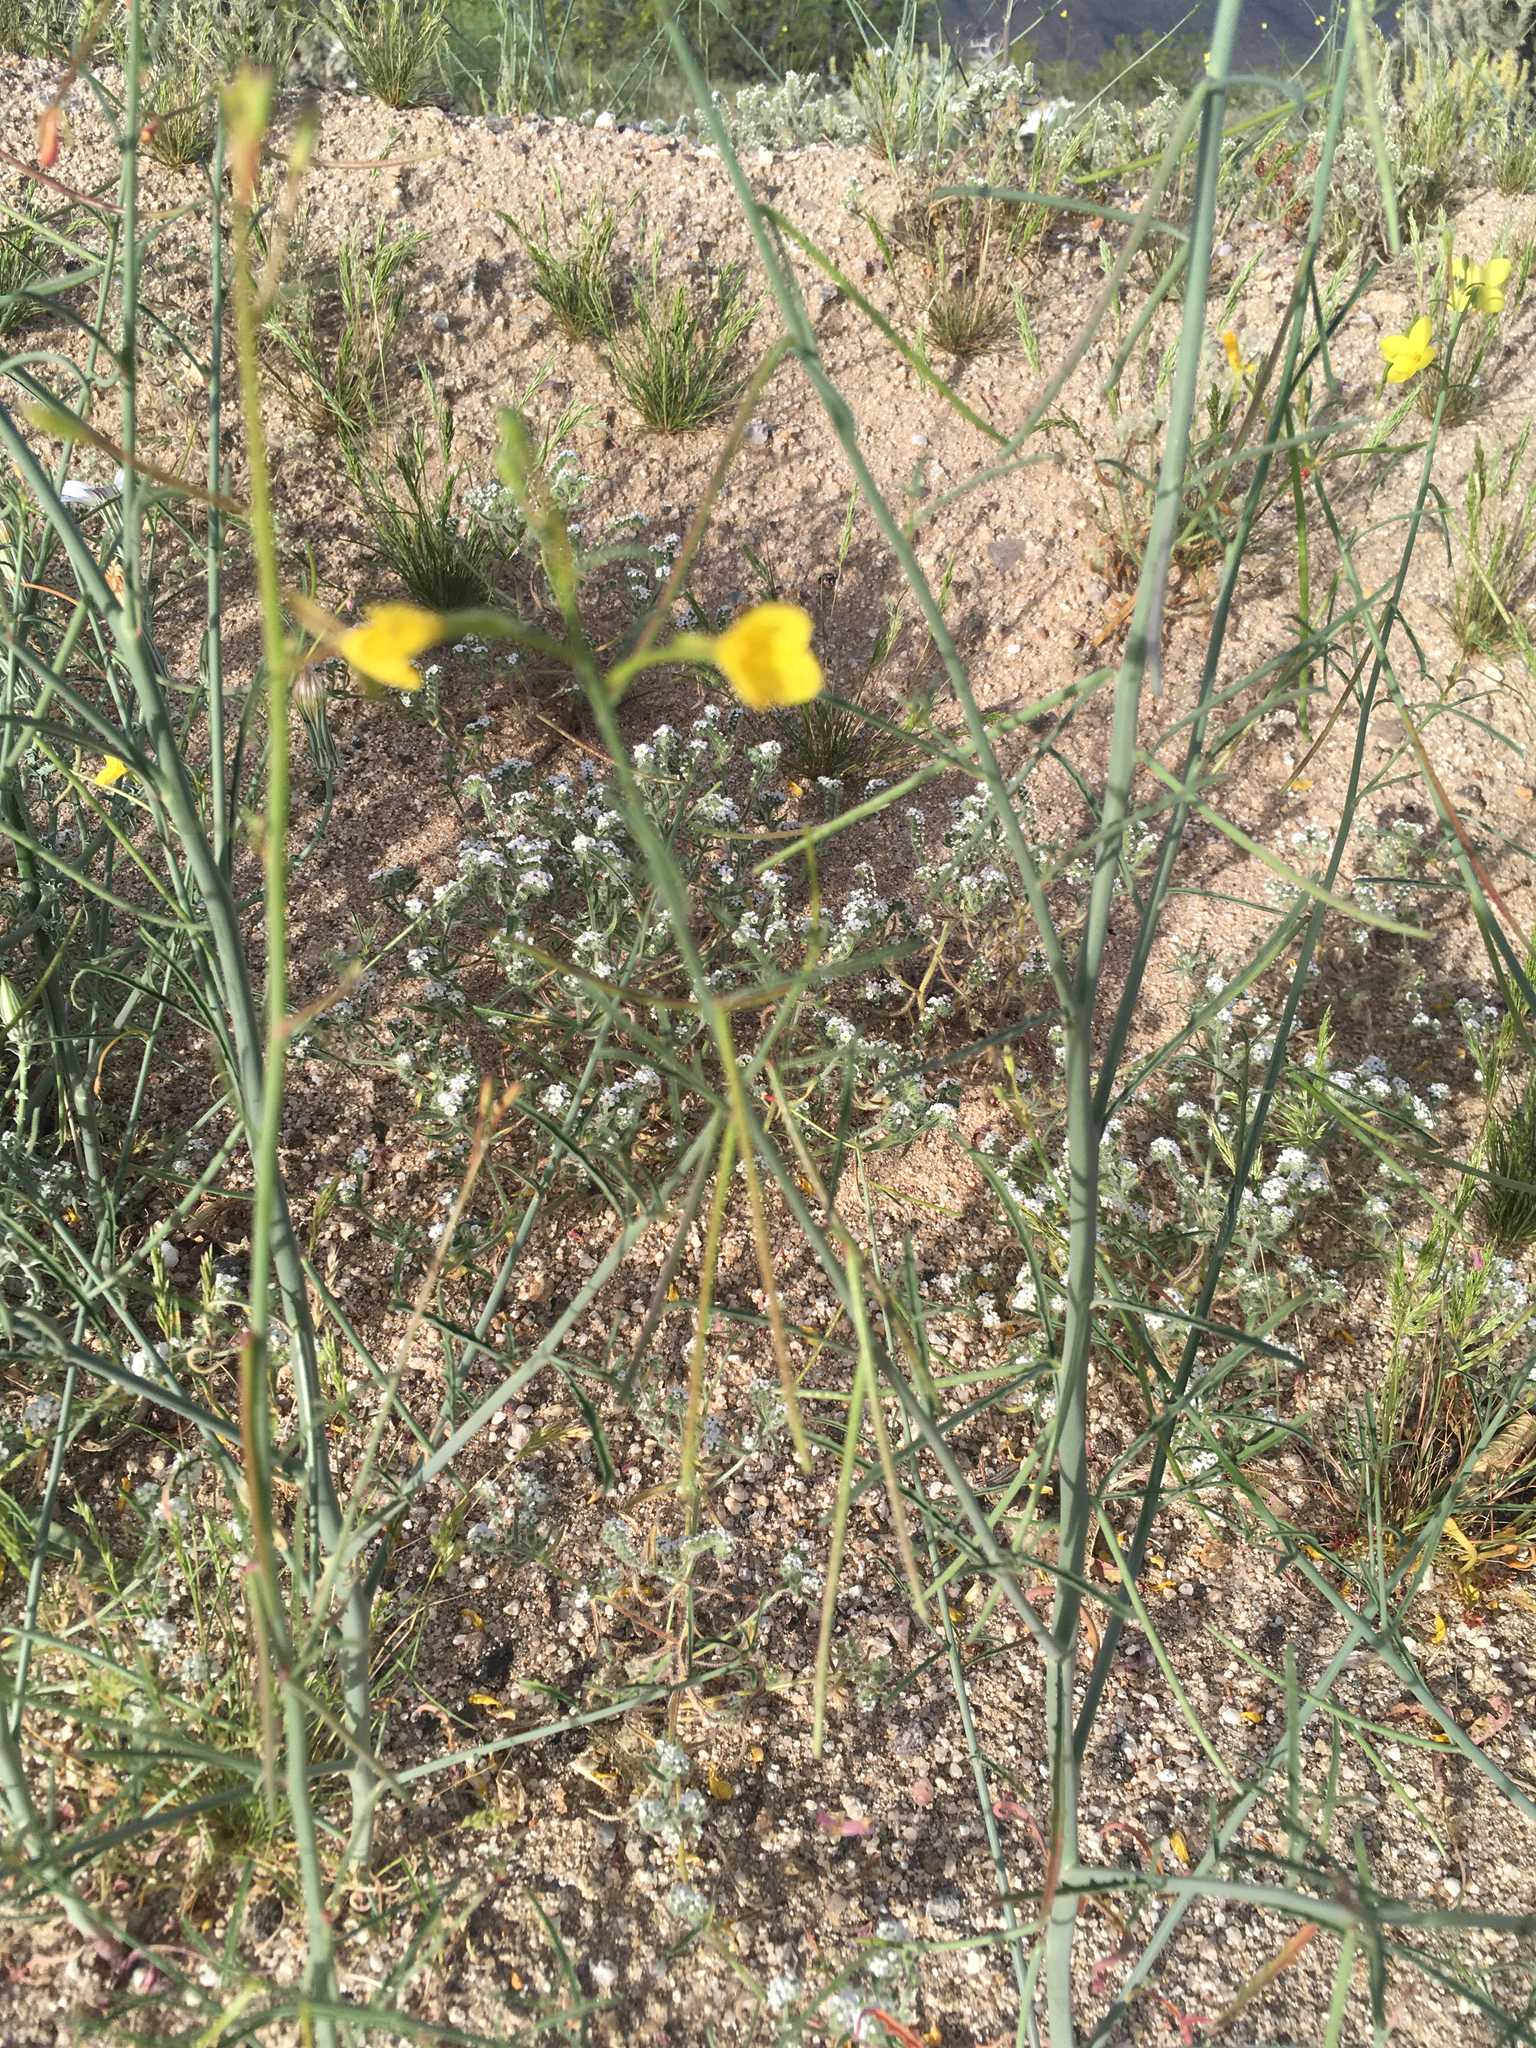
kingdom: Plantae
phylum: Tracheophyta
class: Magnoliopsida
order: Myrtales
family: Onagraceae
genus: Eulobus
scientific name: Eulobus californicus
